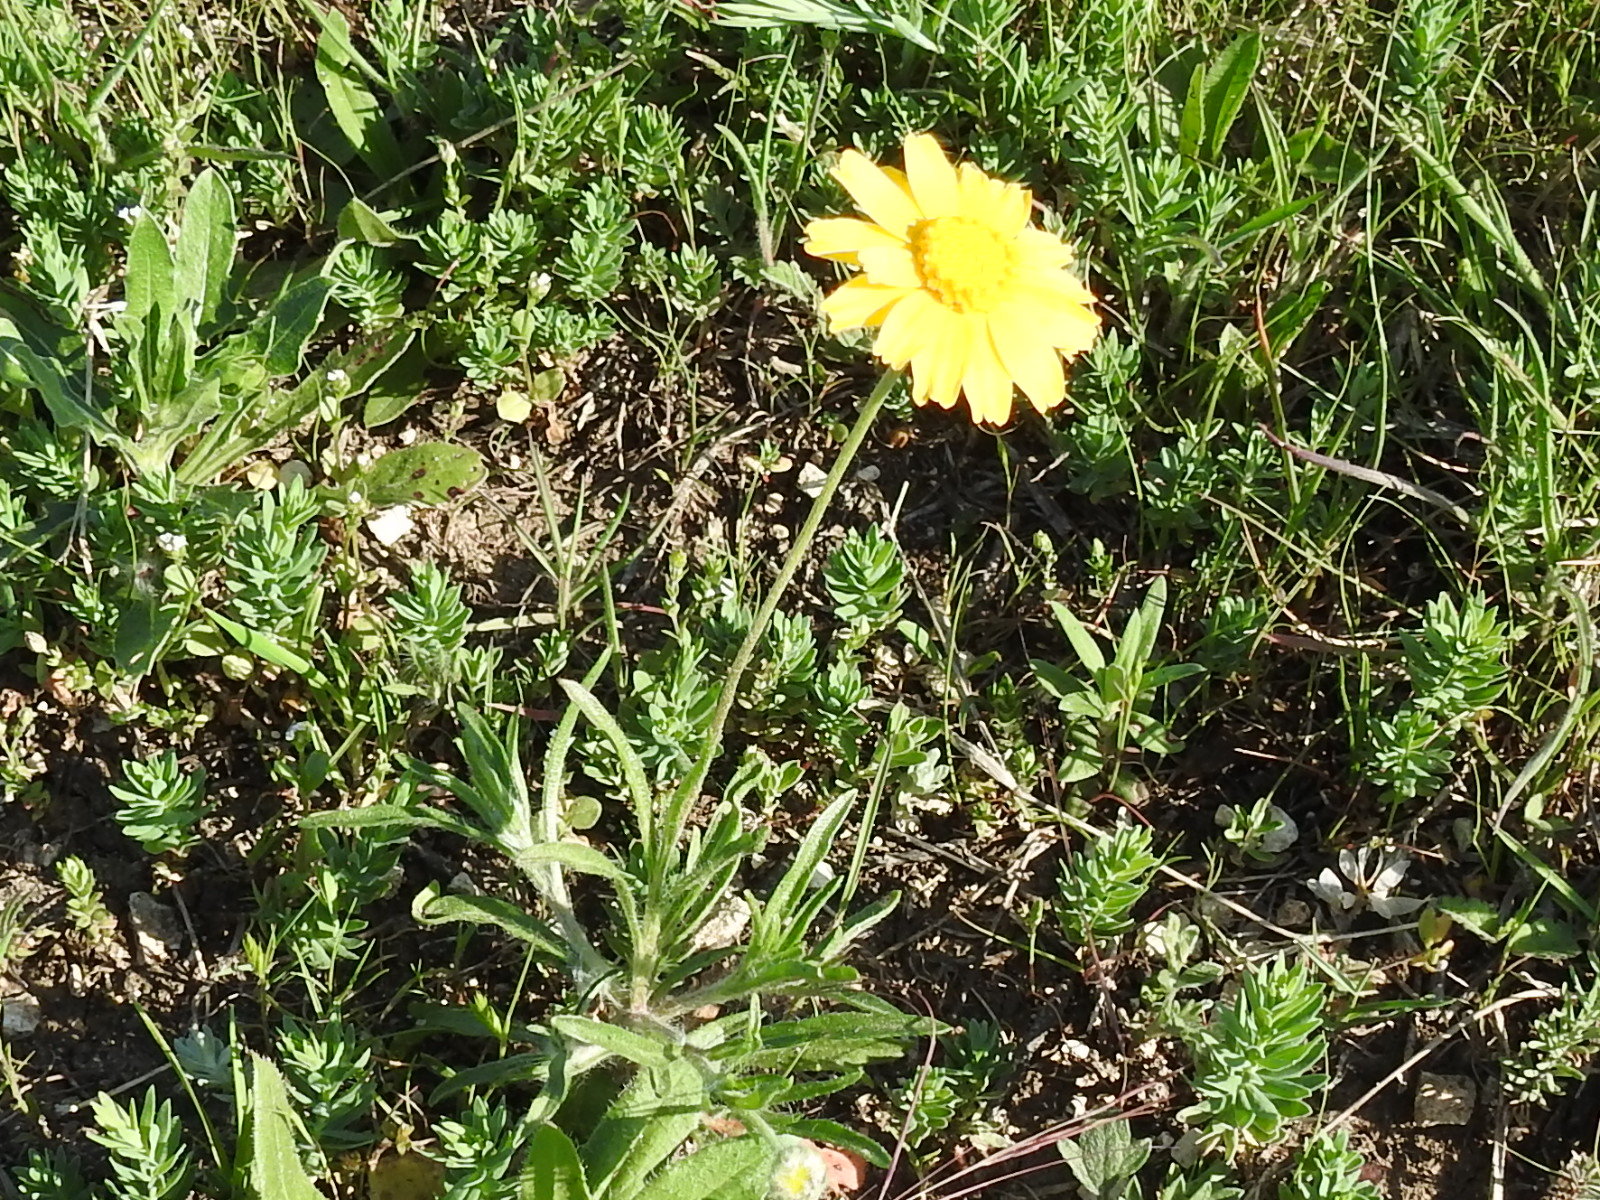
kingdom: Plantae
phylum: Tracheophyta
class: Magnoliopsida
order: Asterales
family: Asteraceae
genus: Tetraneuris
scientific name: Tetraneuris scaposa
